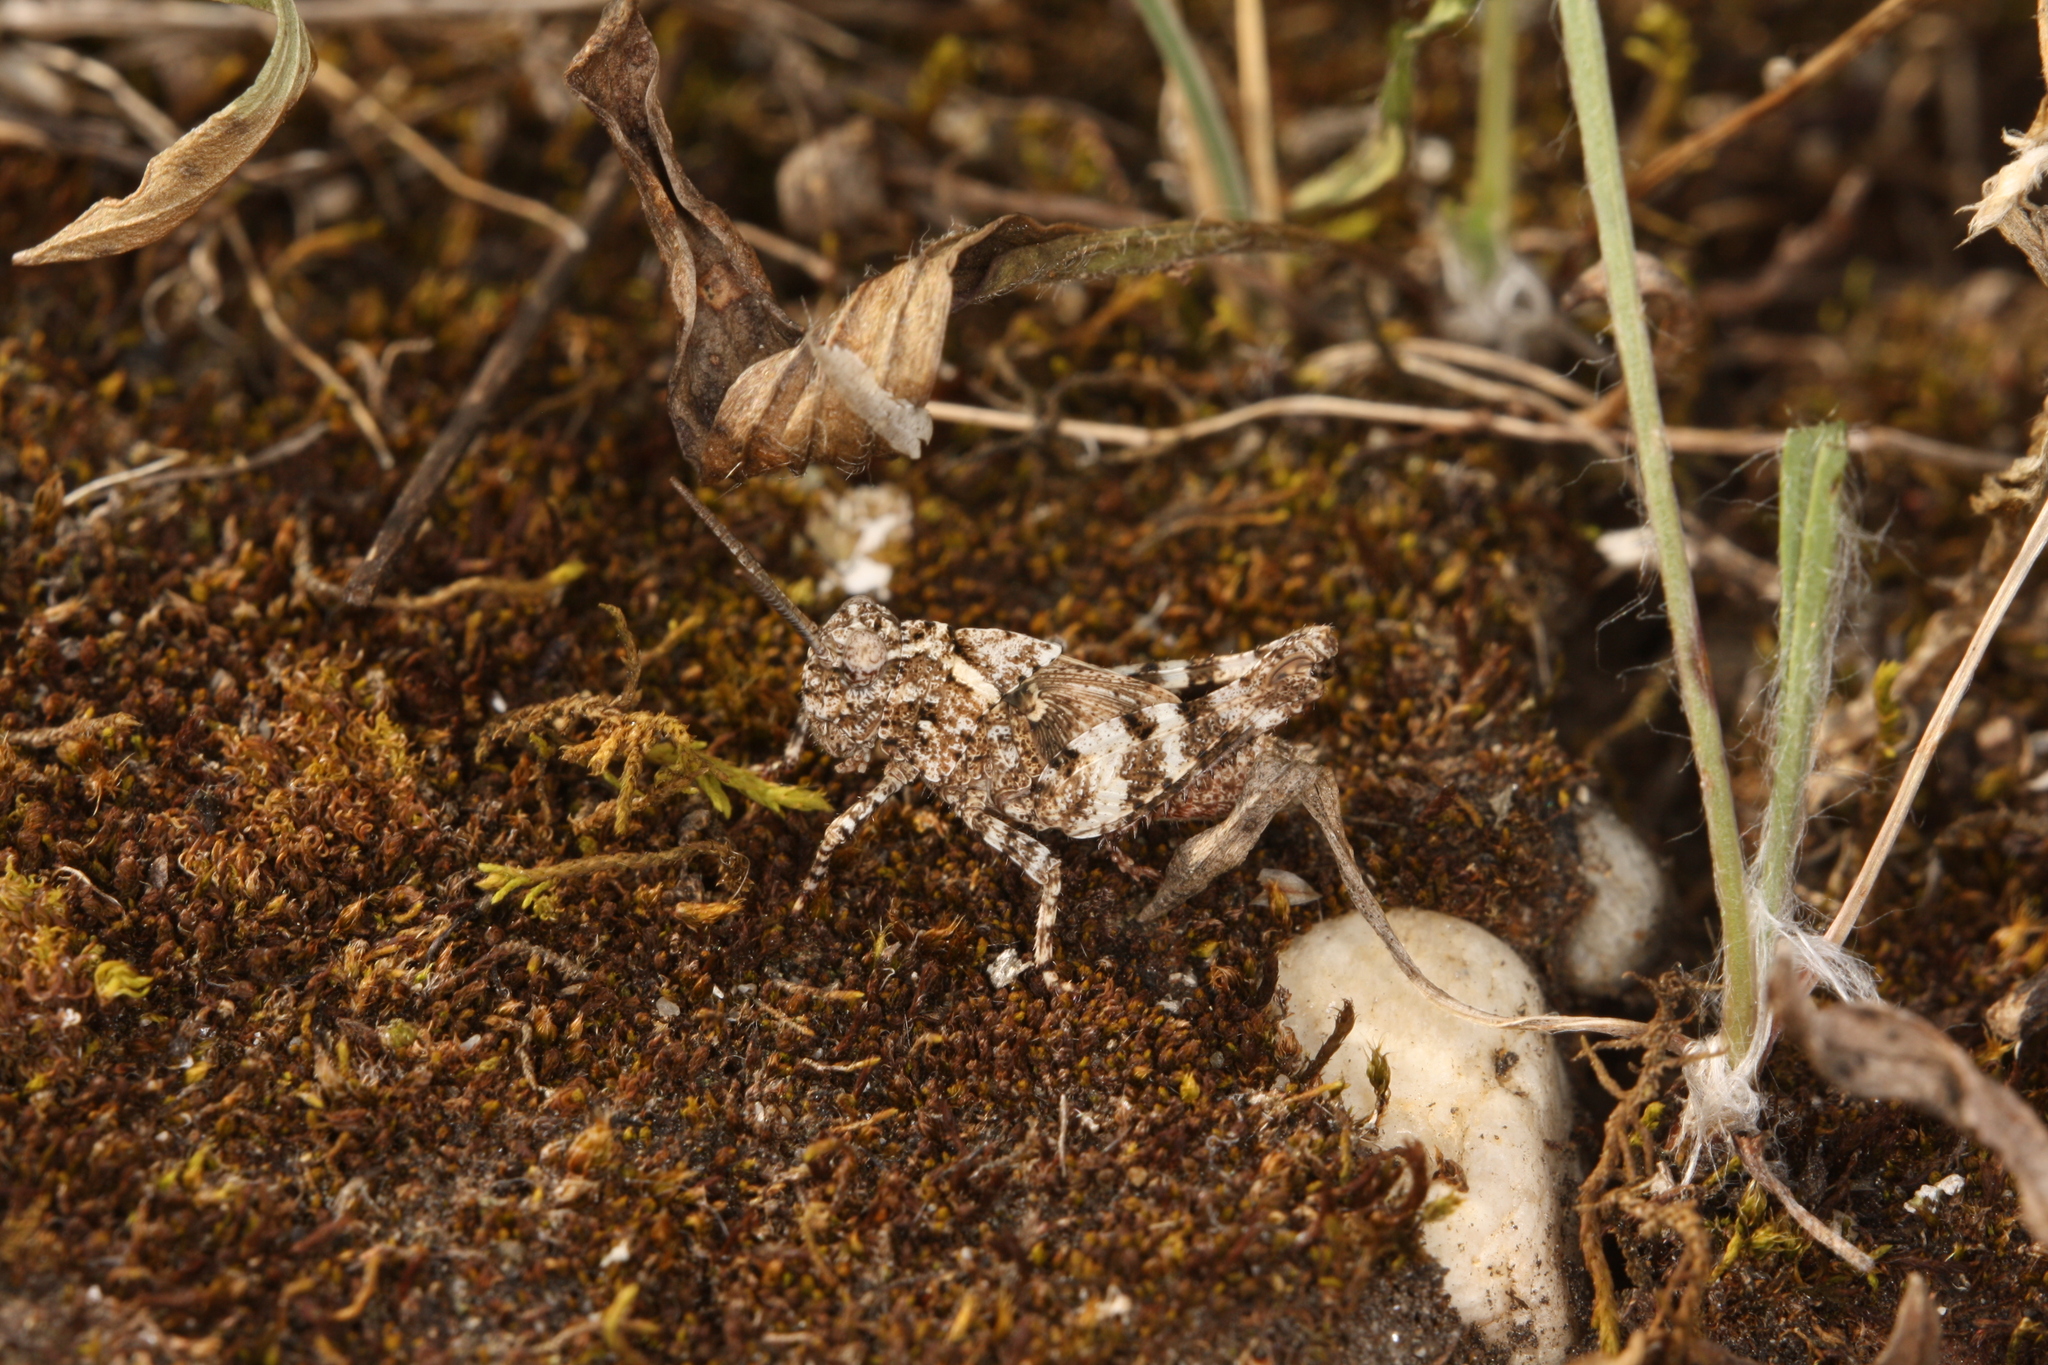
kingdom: Animalia
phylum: Arthropoda
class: Insecta
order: Orthoptera
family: Acrididae
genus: Oedipoda
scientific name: Oedipoda caerulescens
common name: Blue-winged grasshopper
